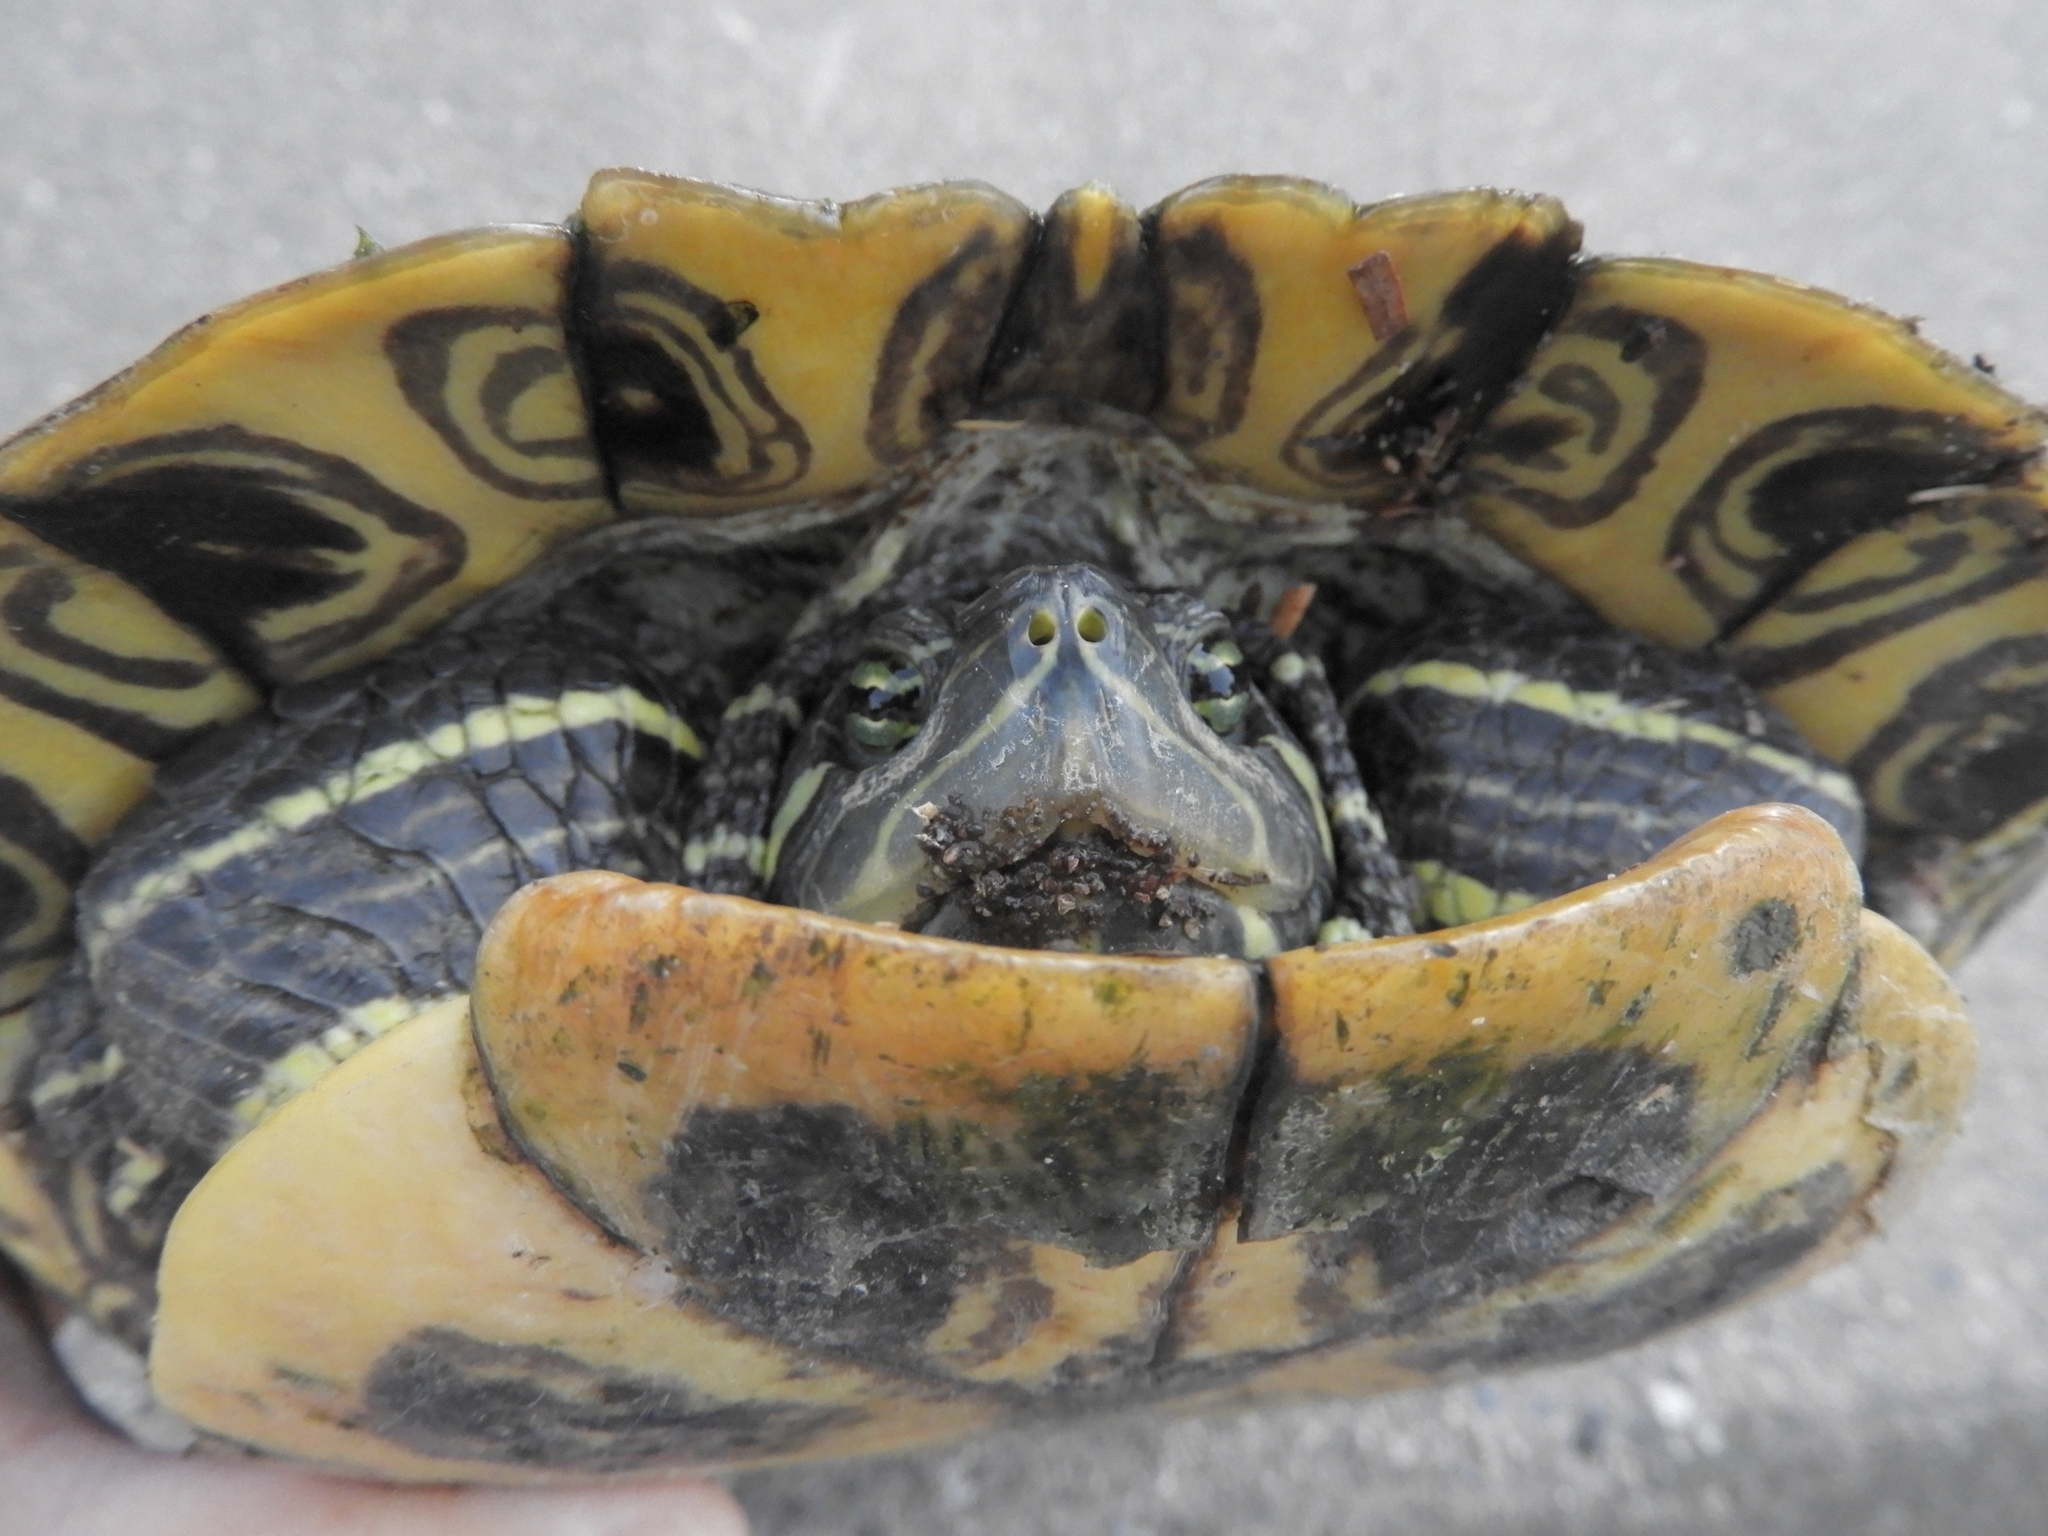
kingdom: Animalia
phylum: Chordata
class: Testudines
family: Emydidae
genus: Trachemys
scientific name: Trachemys scripta
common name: Slider
